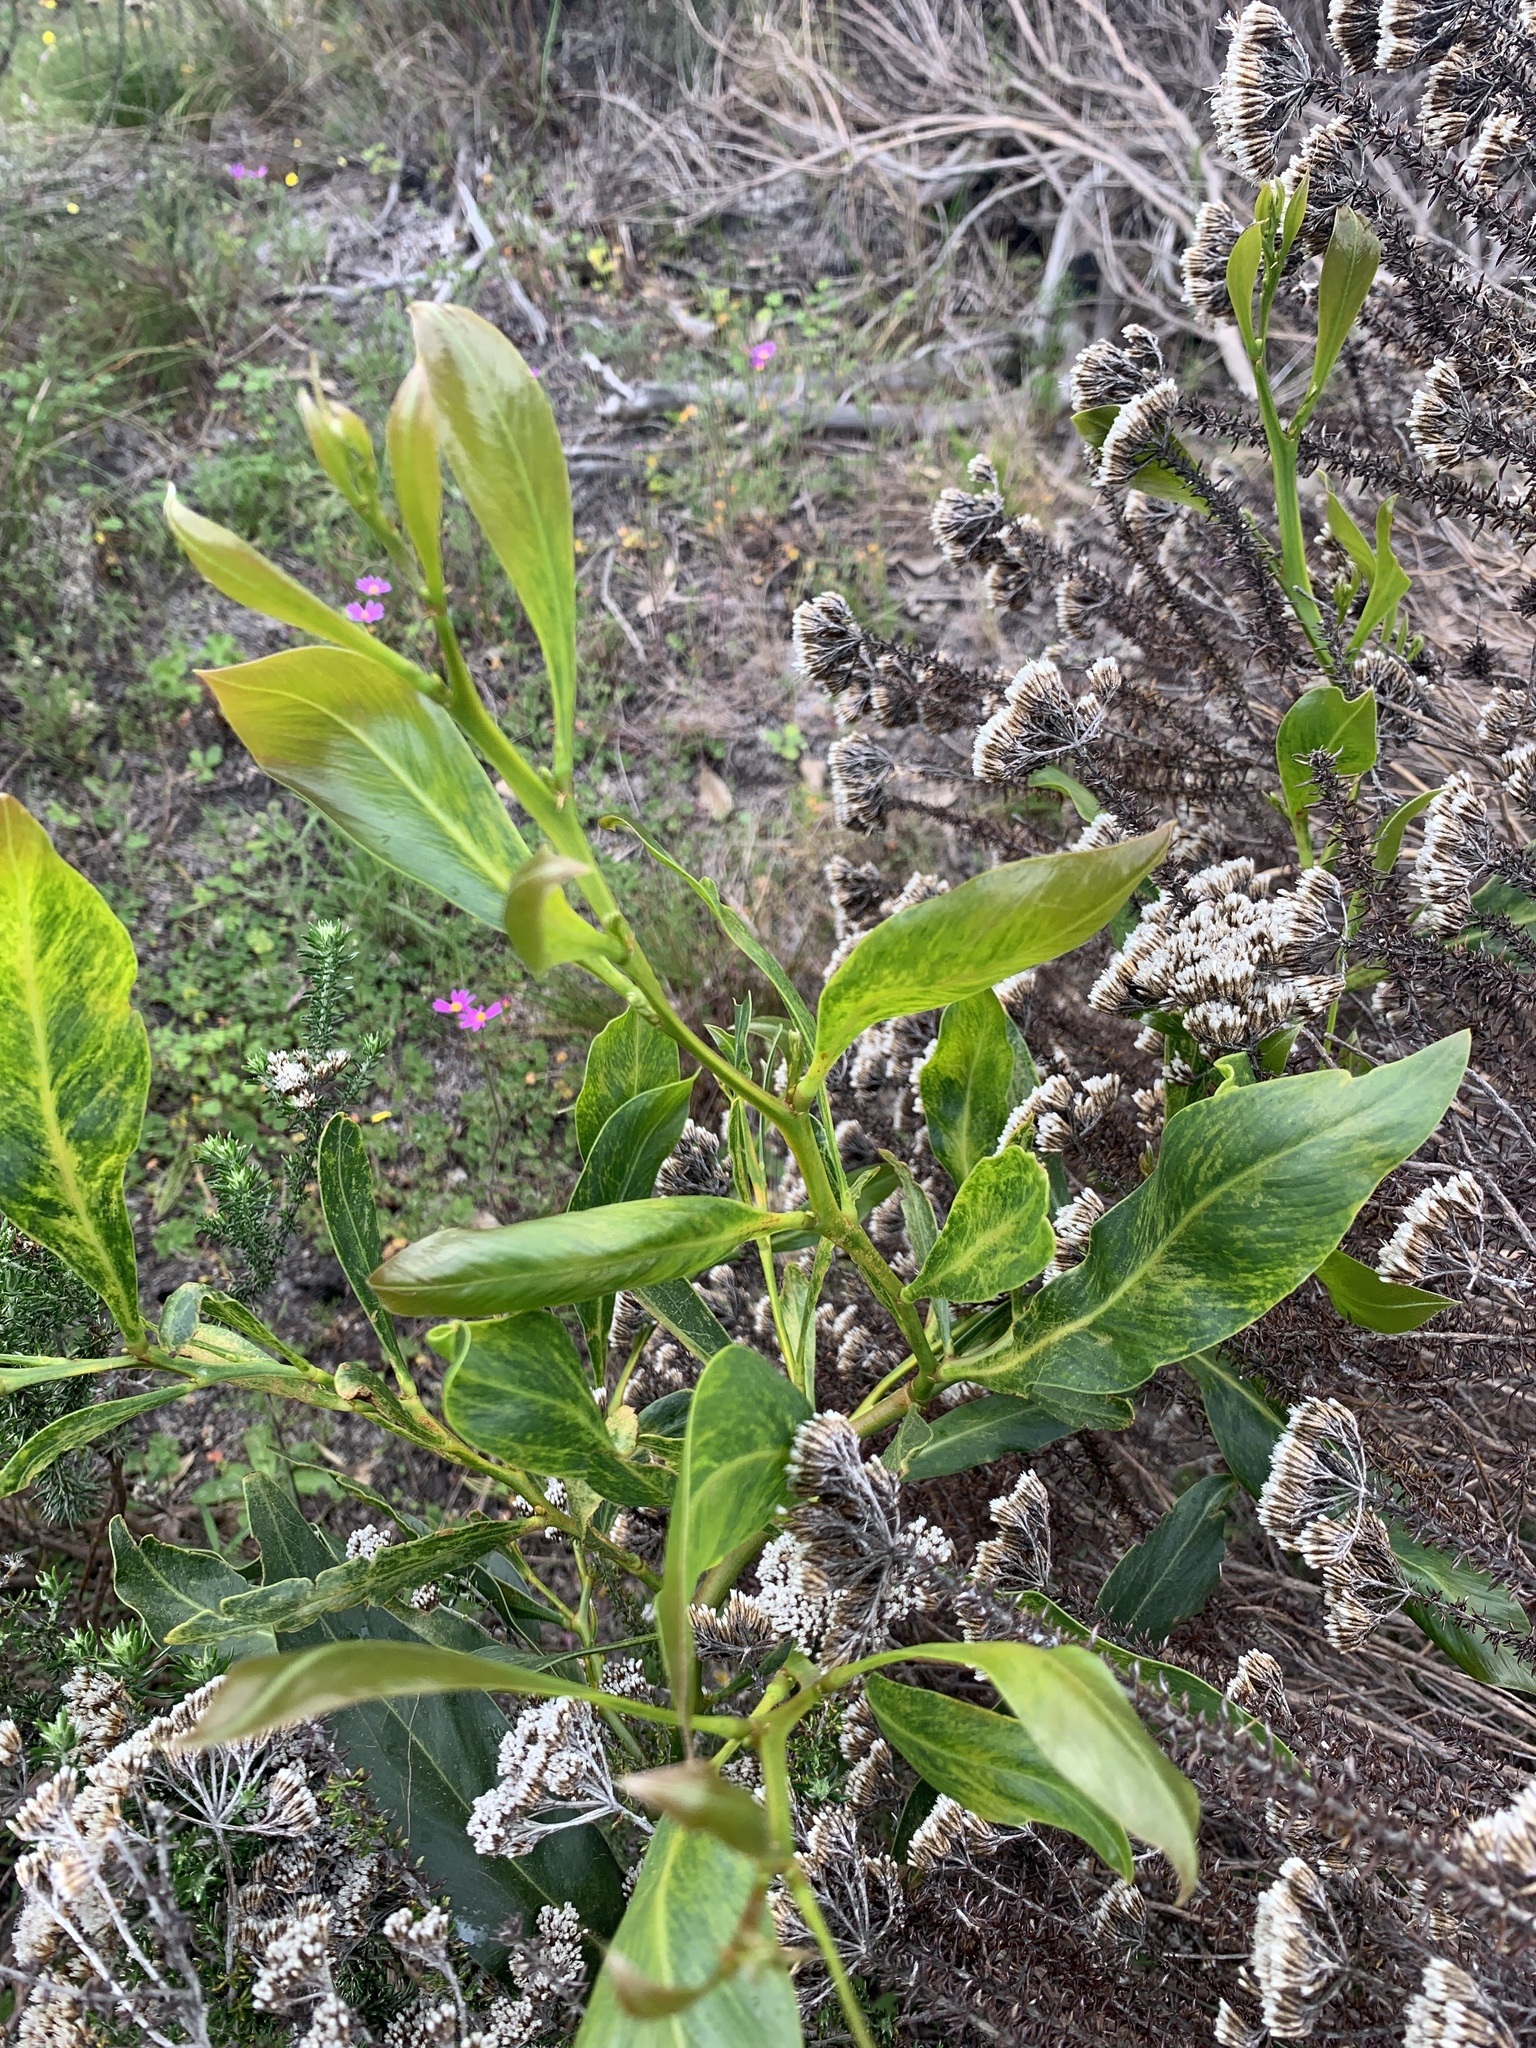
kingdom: Plantae
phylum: Tracheophyta
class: Magnoliopsida
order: Fabales
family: Fabaceae
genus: Acacia
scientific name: Acacia saligna
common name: Orange wattle
